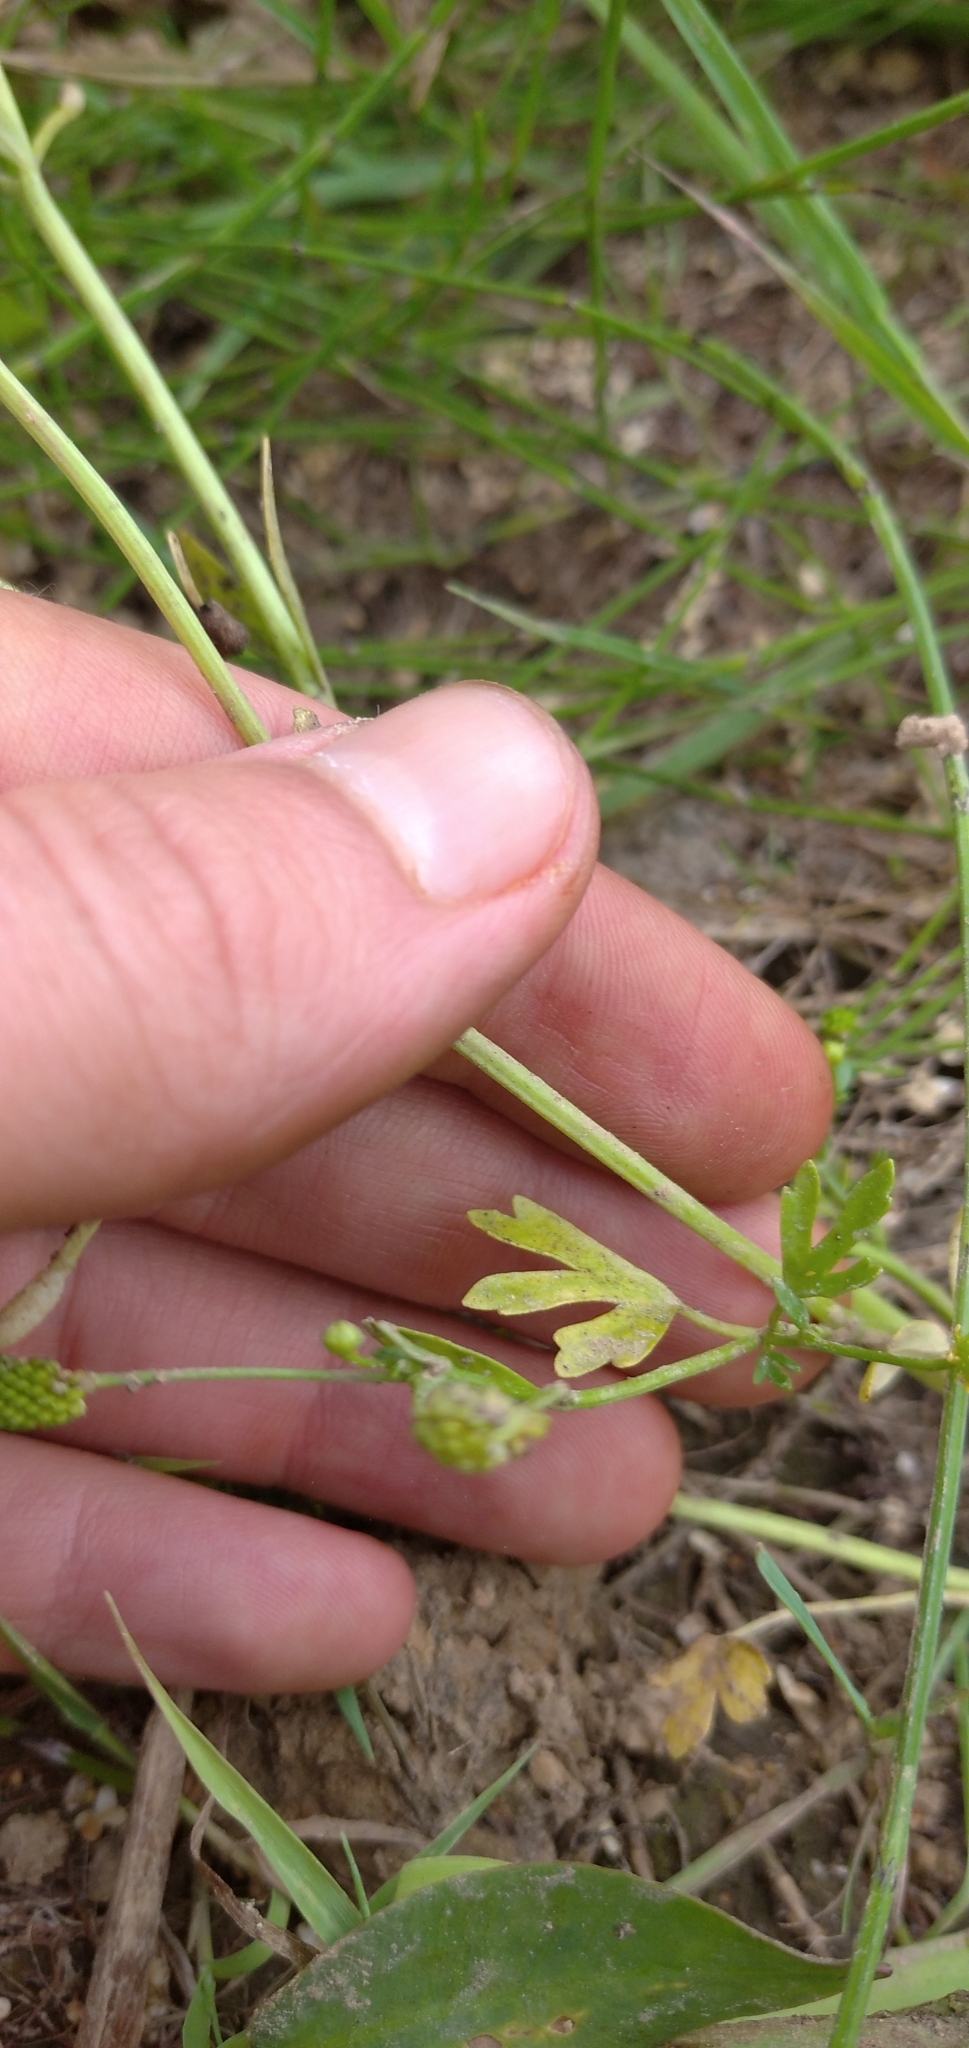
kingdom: Plantae
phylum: Tracheophyta
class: Magnoliopsida
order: Ranunculales
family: Ranunculaceae
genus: Ranunculus
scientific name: Ranunculus sceleratus
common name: Celery-leaved buttercup
